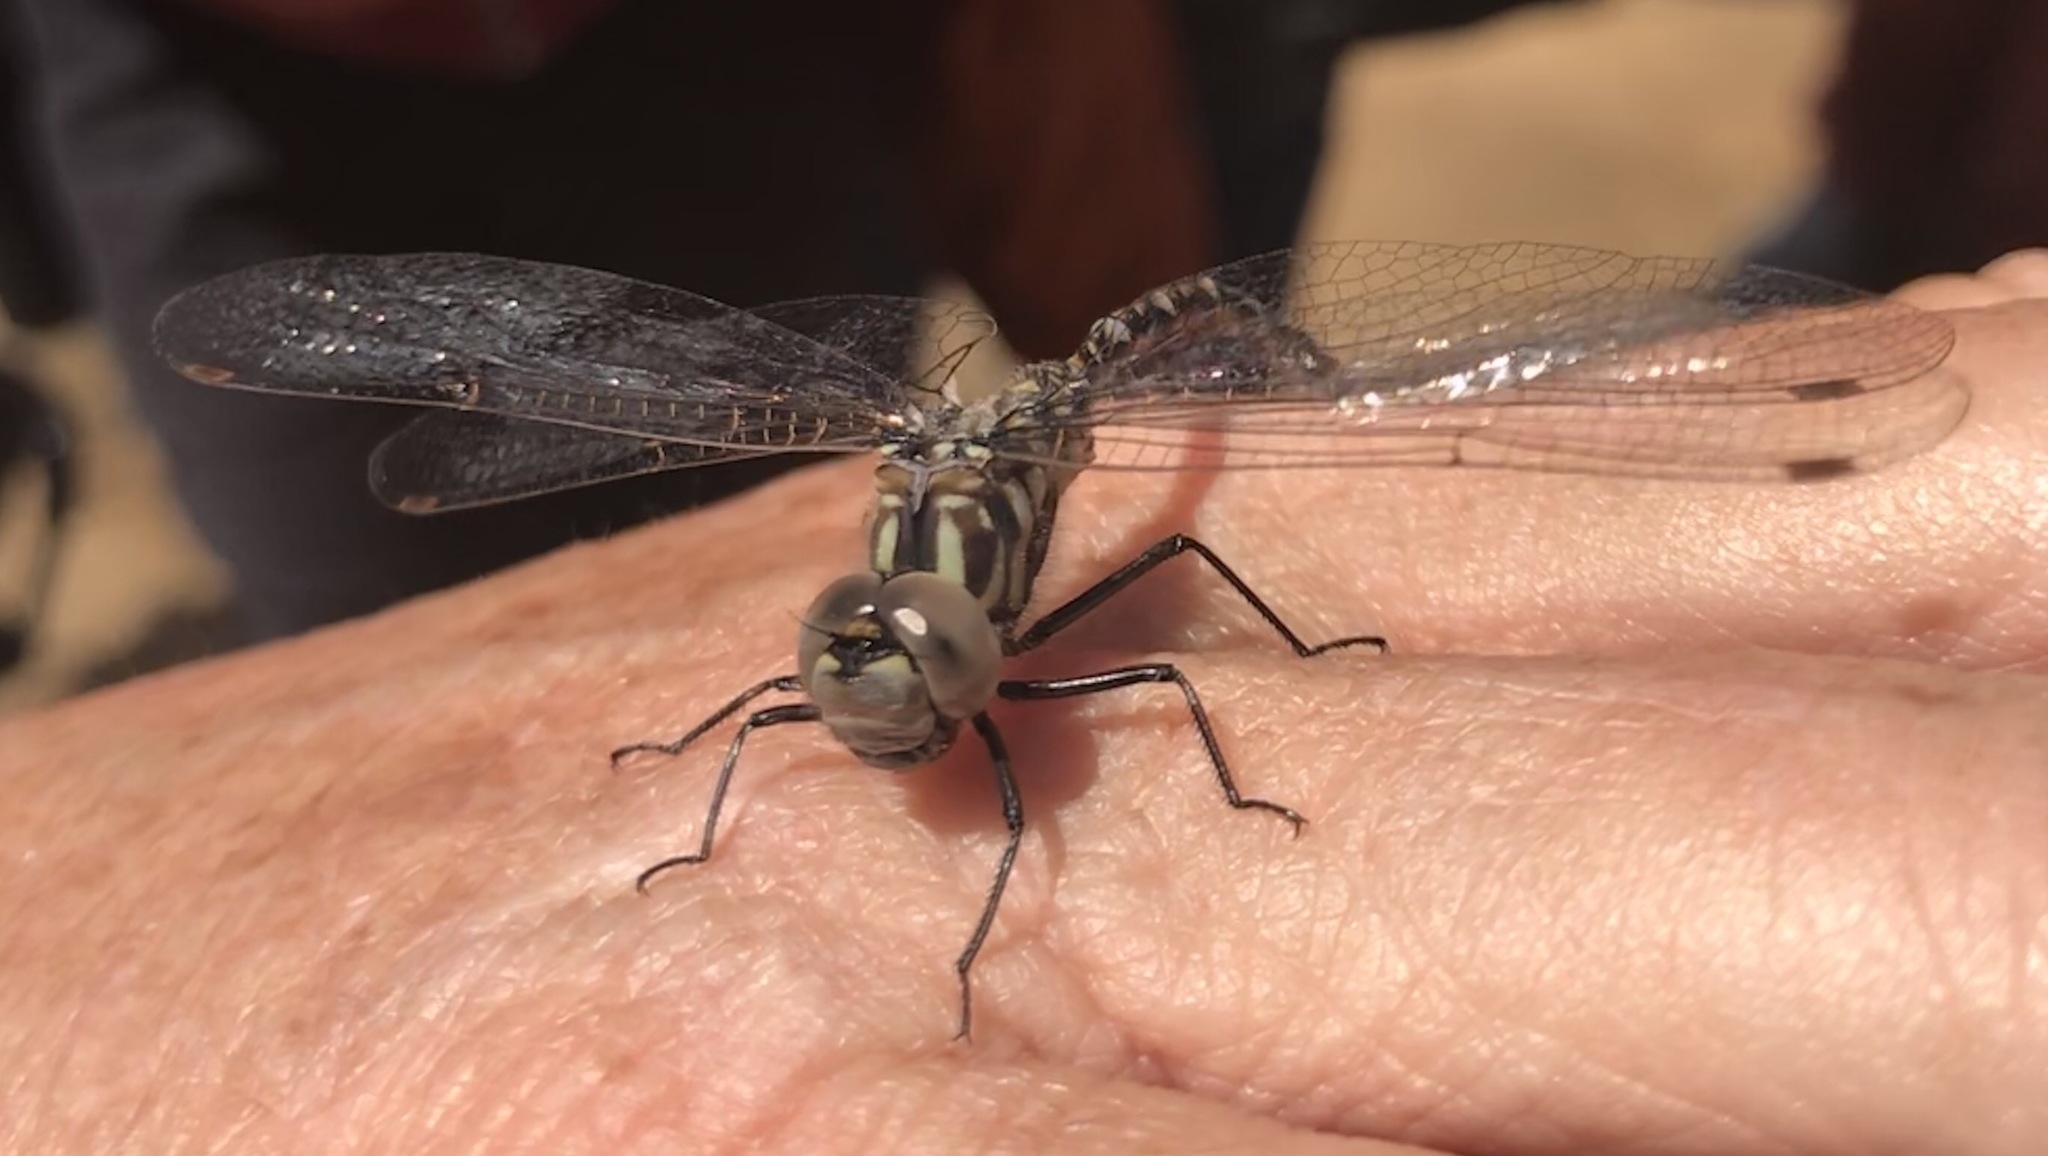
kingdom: Animalia
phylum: Arthropoda
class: Insecta
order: Odonata
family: Aeshnidae
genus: Gomphaeschna
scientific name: Gomphaeschna furcillata
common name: Harlequin darner
